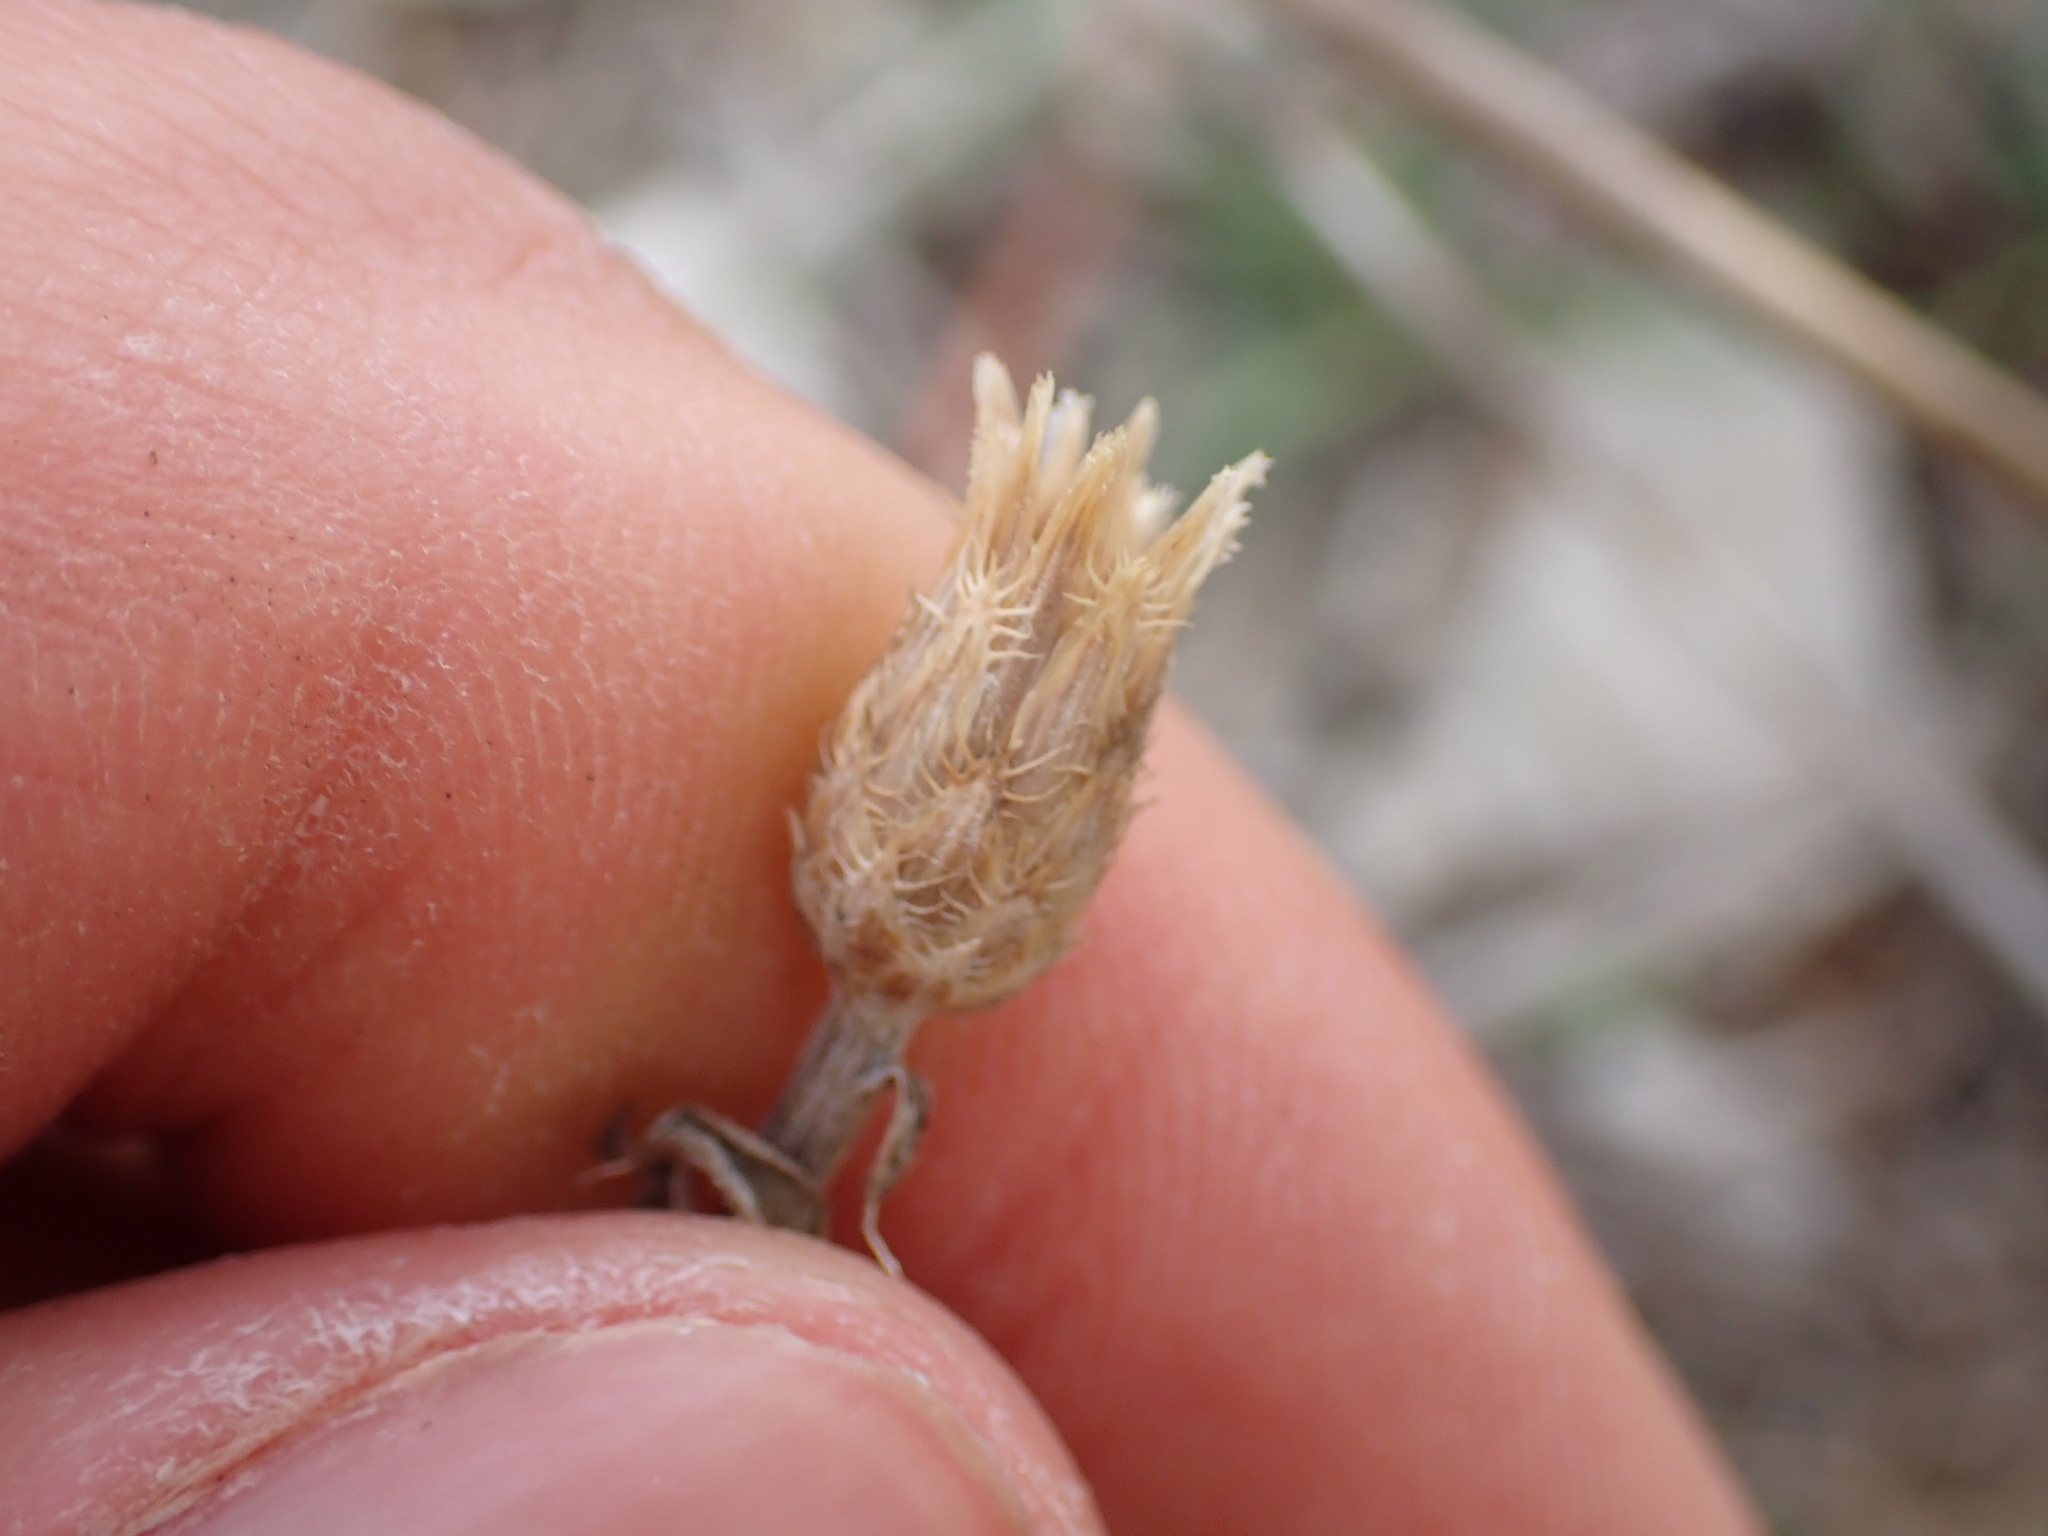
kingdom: Plantae
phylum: Tracheophyta
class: Magnoliopsida
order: Asterales
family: Asteraceae
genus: Centaurea
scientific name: Centaurea paniculata
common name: Jersey knapweed
